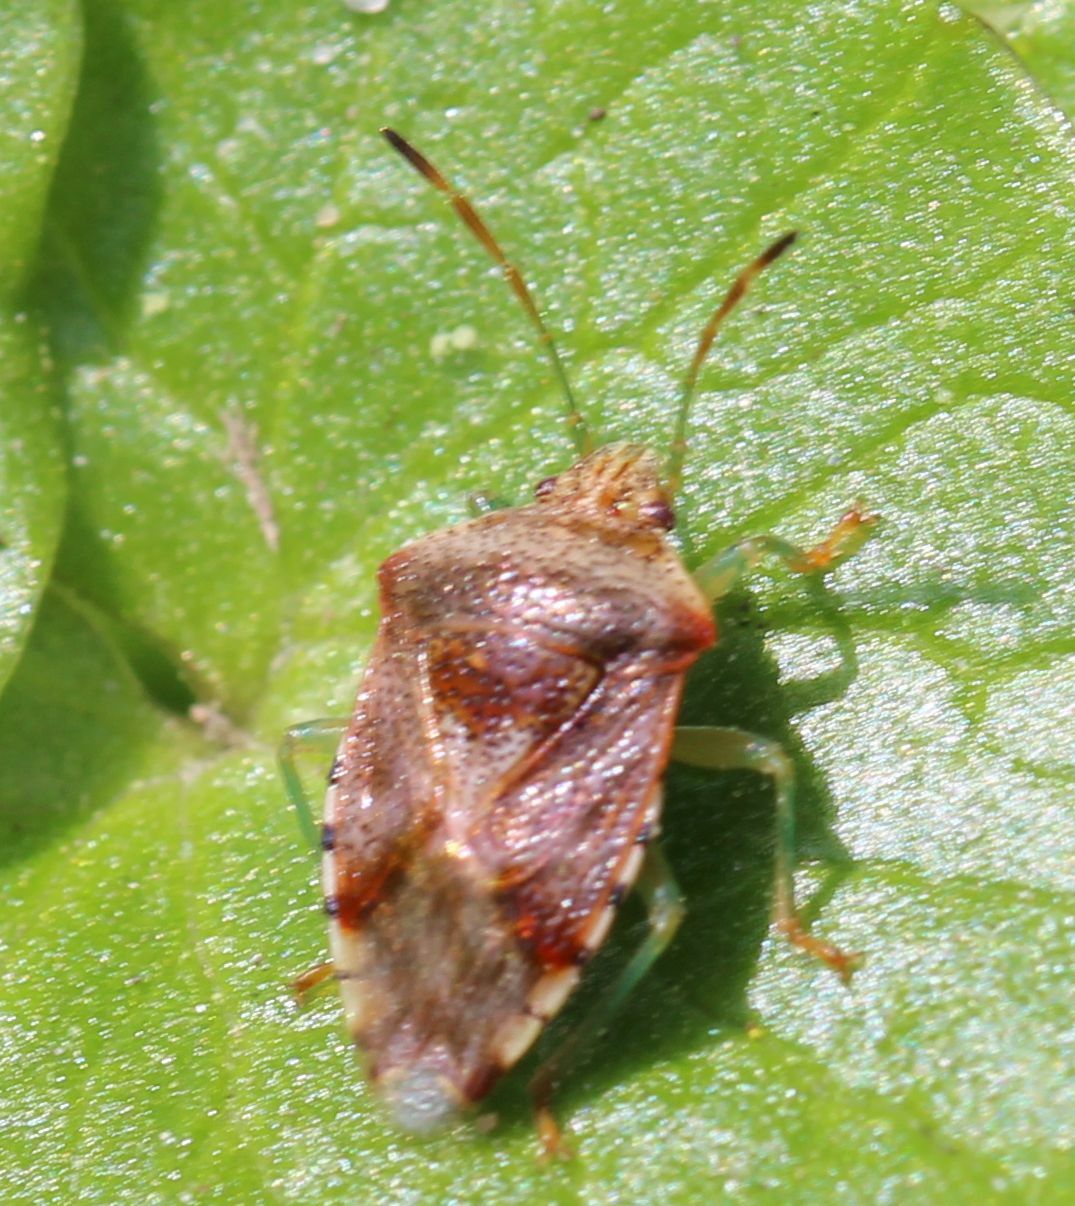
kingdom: Animalia
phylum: Arthropoda
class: Insecta
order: Hemiptera
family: Acanthosomatidae
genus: Elasmucha
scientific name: Elasmucha grisea
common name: Parent bug
